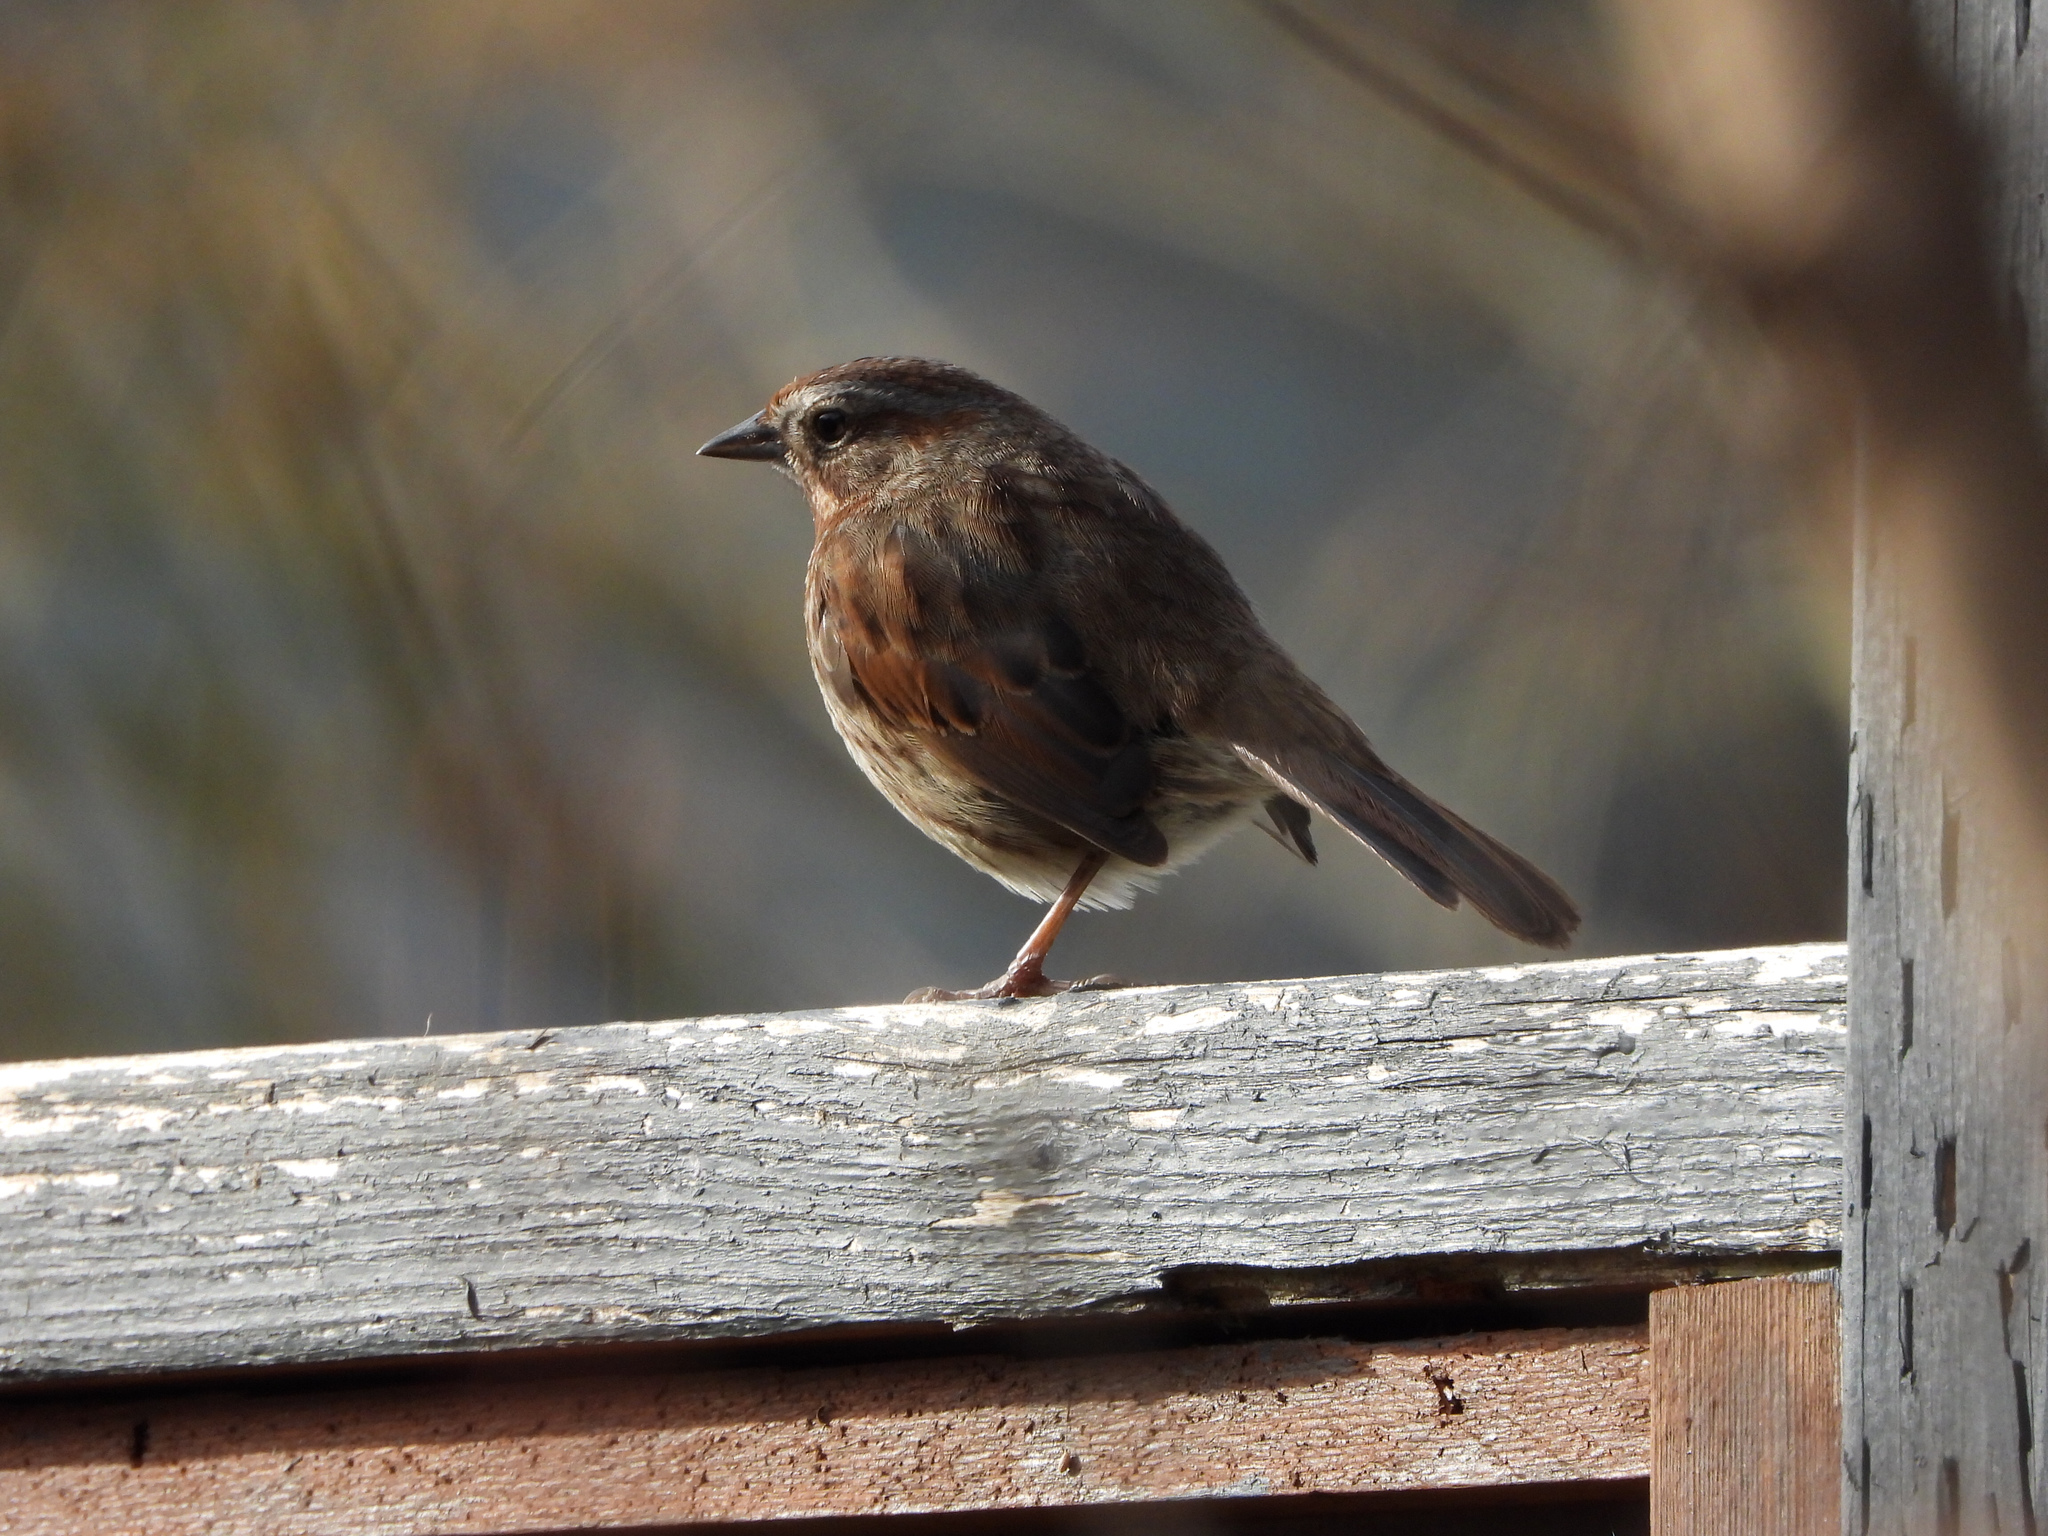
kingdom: Animalia
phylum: Chordata
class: Aves
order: Passeriformes
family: Passerellidae
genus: Melospiza
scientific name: Melospiza melodia
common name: Song sparrow
